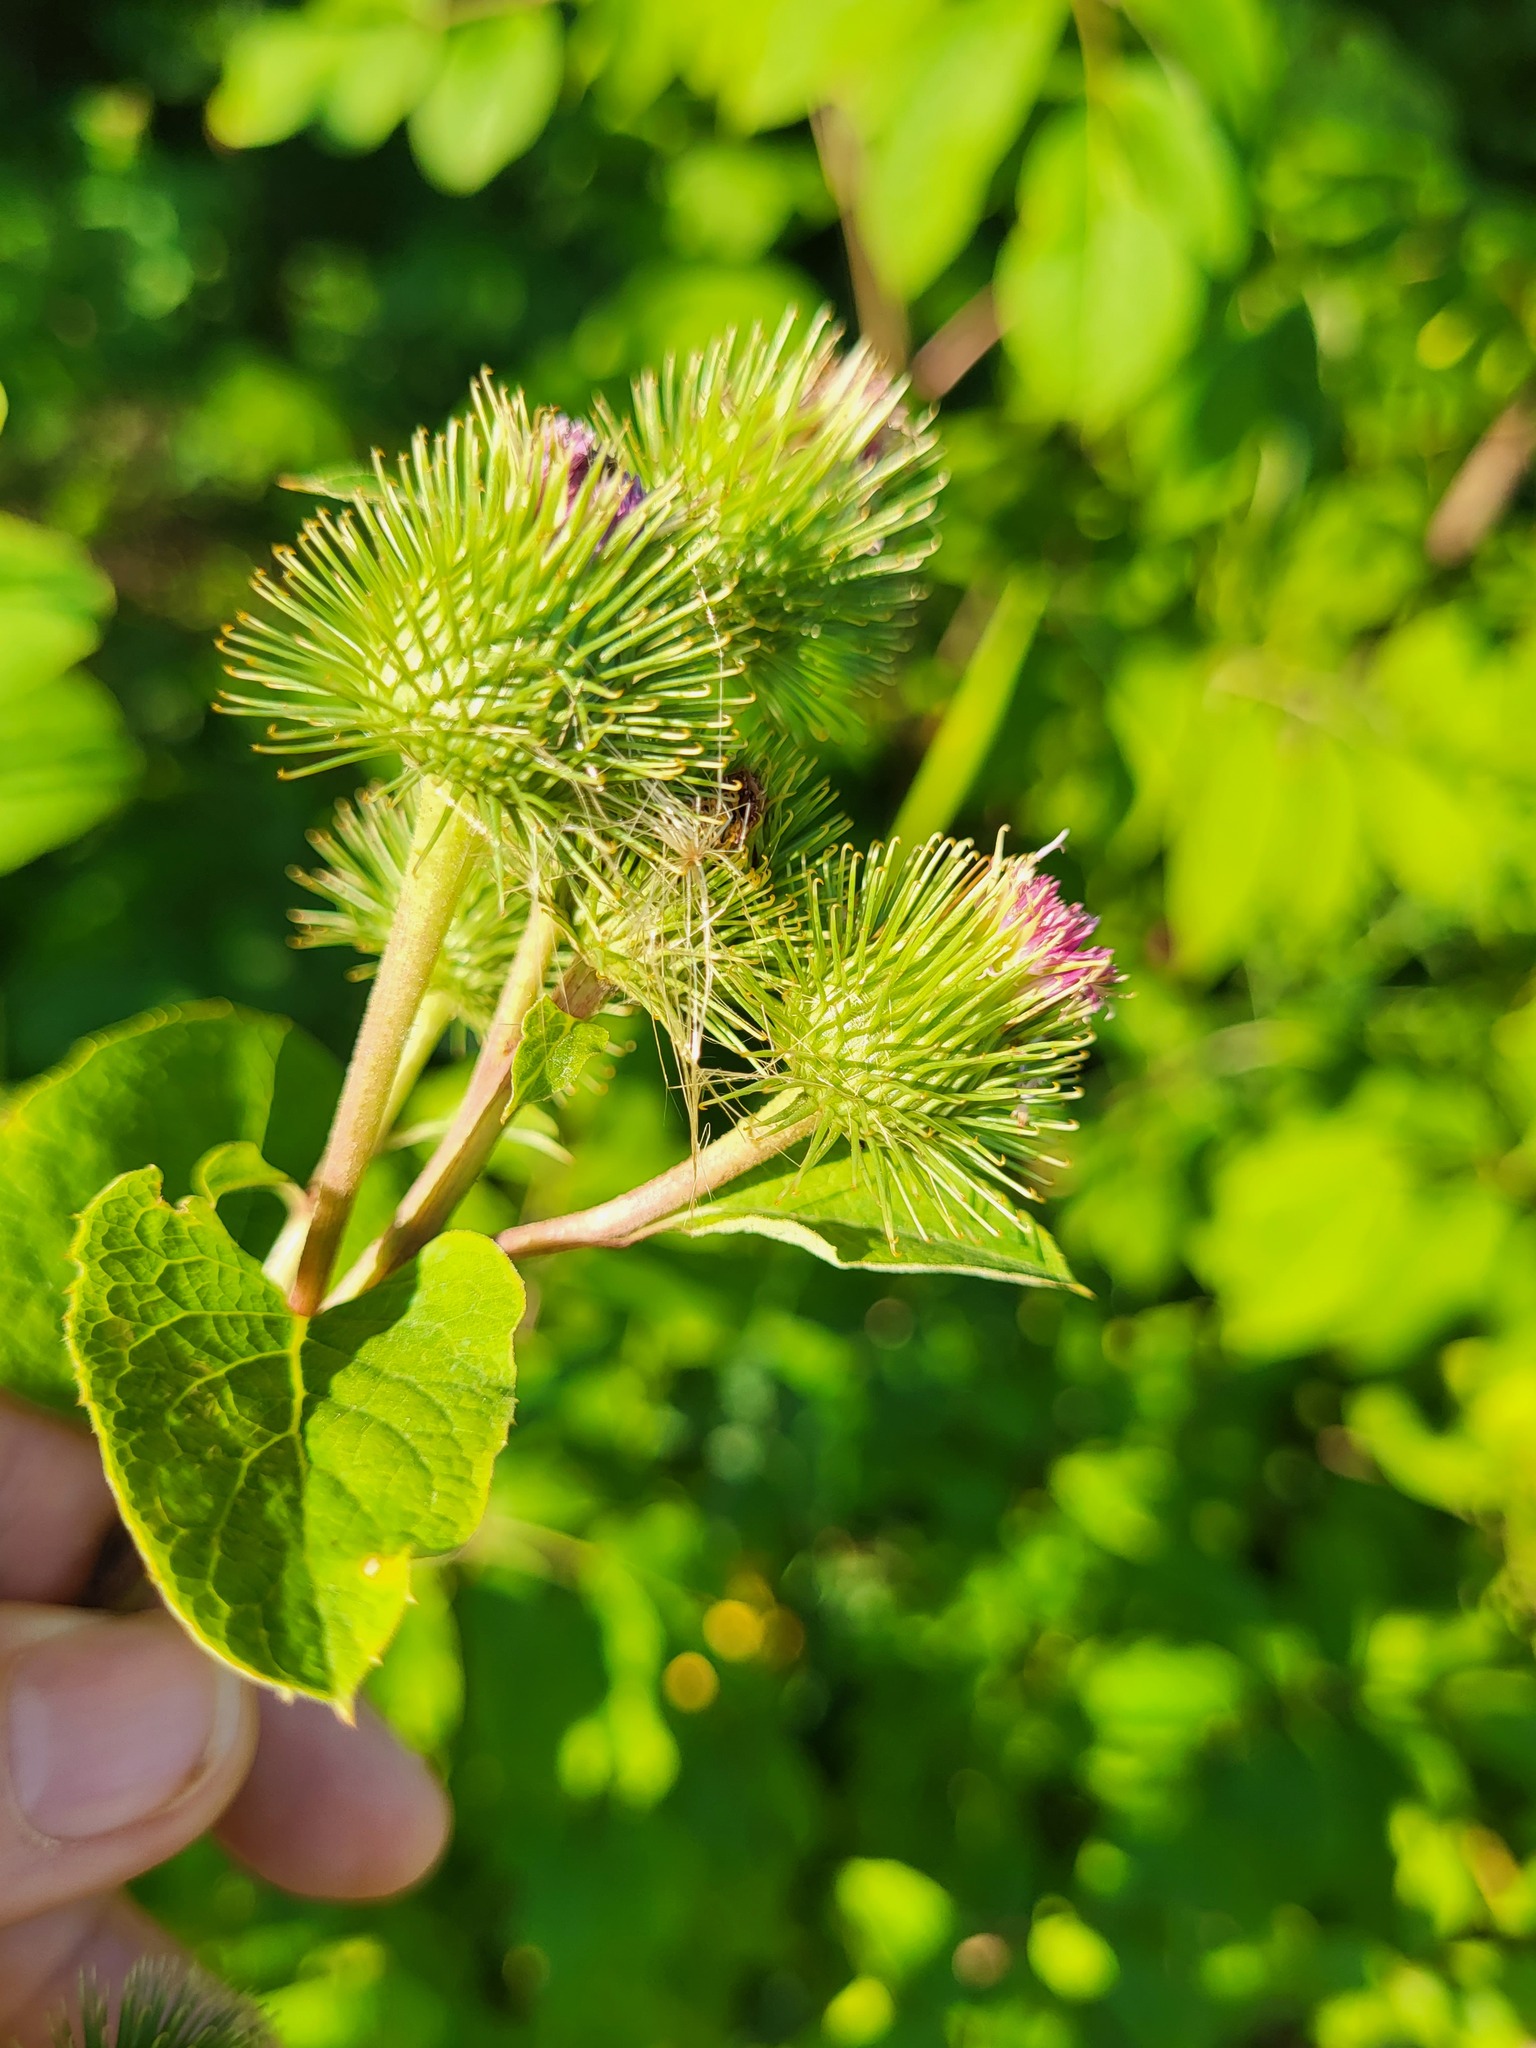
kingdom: Plantae
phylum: Tracheophyta
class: Magnoliopsida
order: Asterales
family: Asteraceae
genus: Arctium
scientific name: Arctium minus
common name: Lesser burdock
